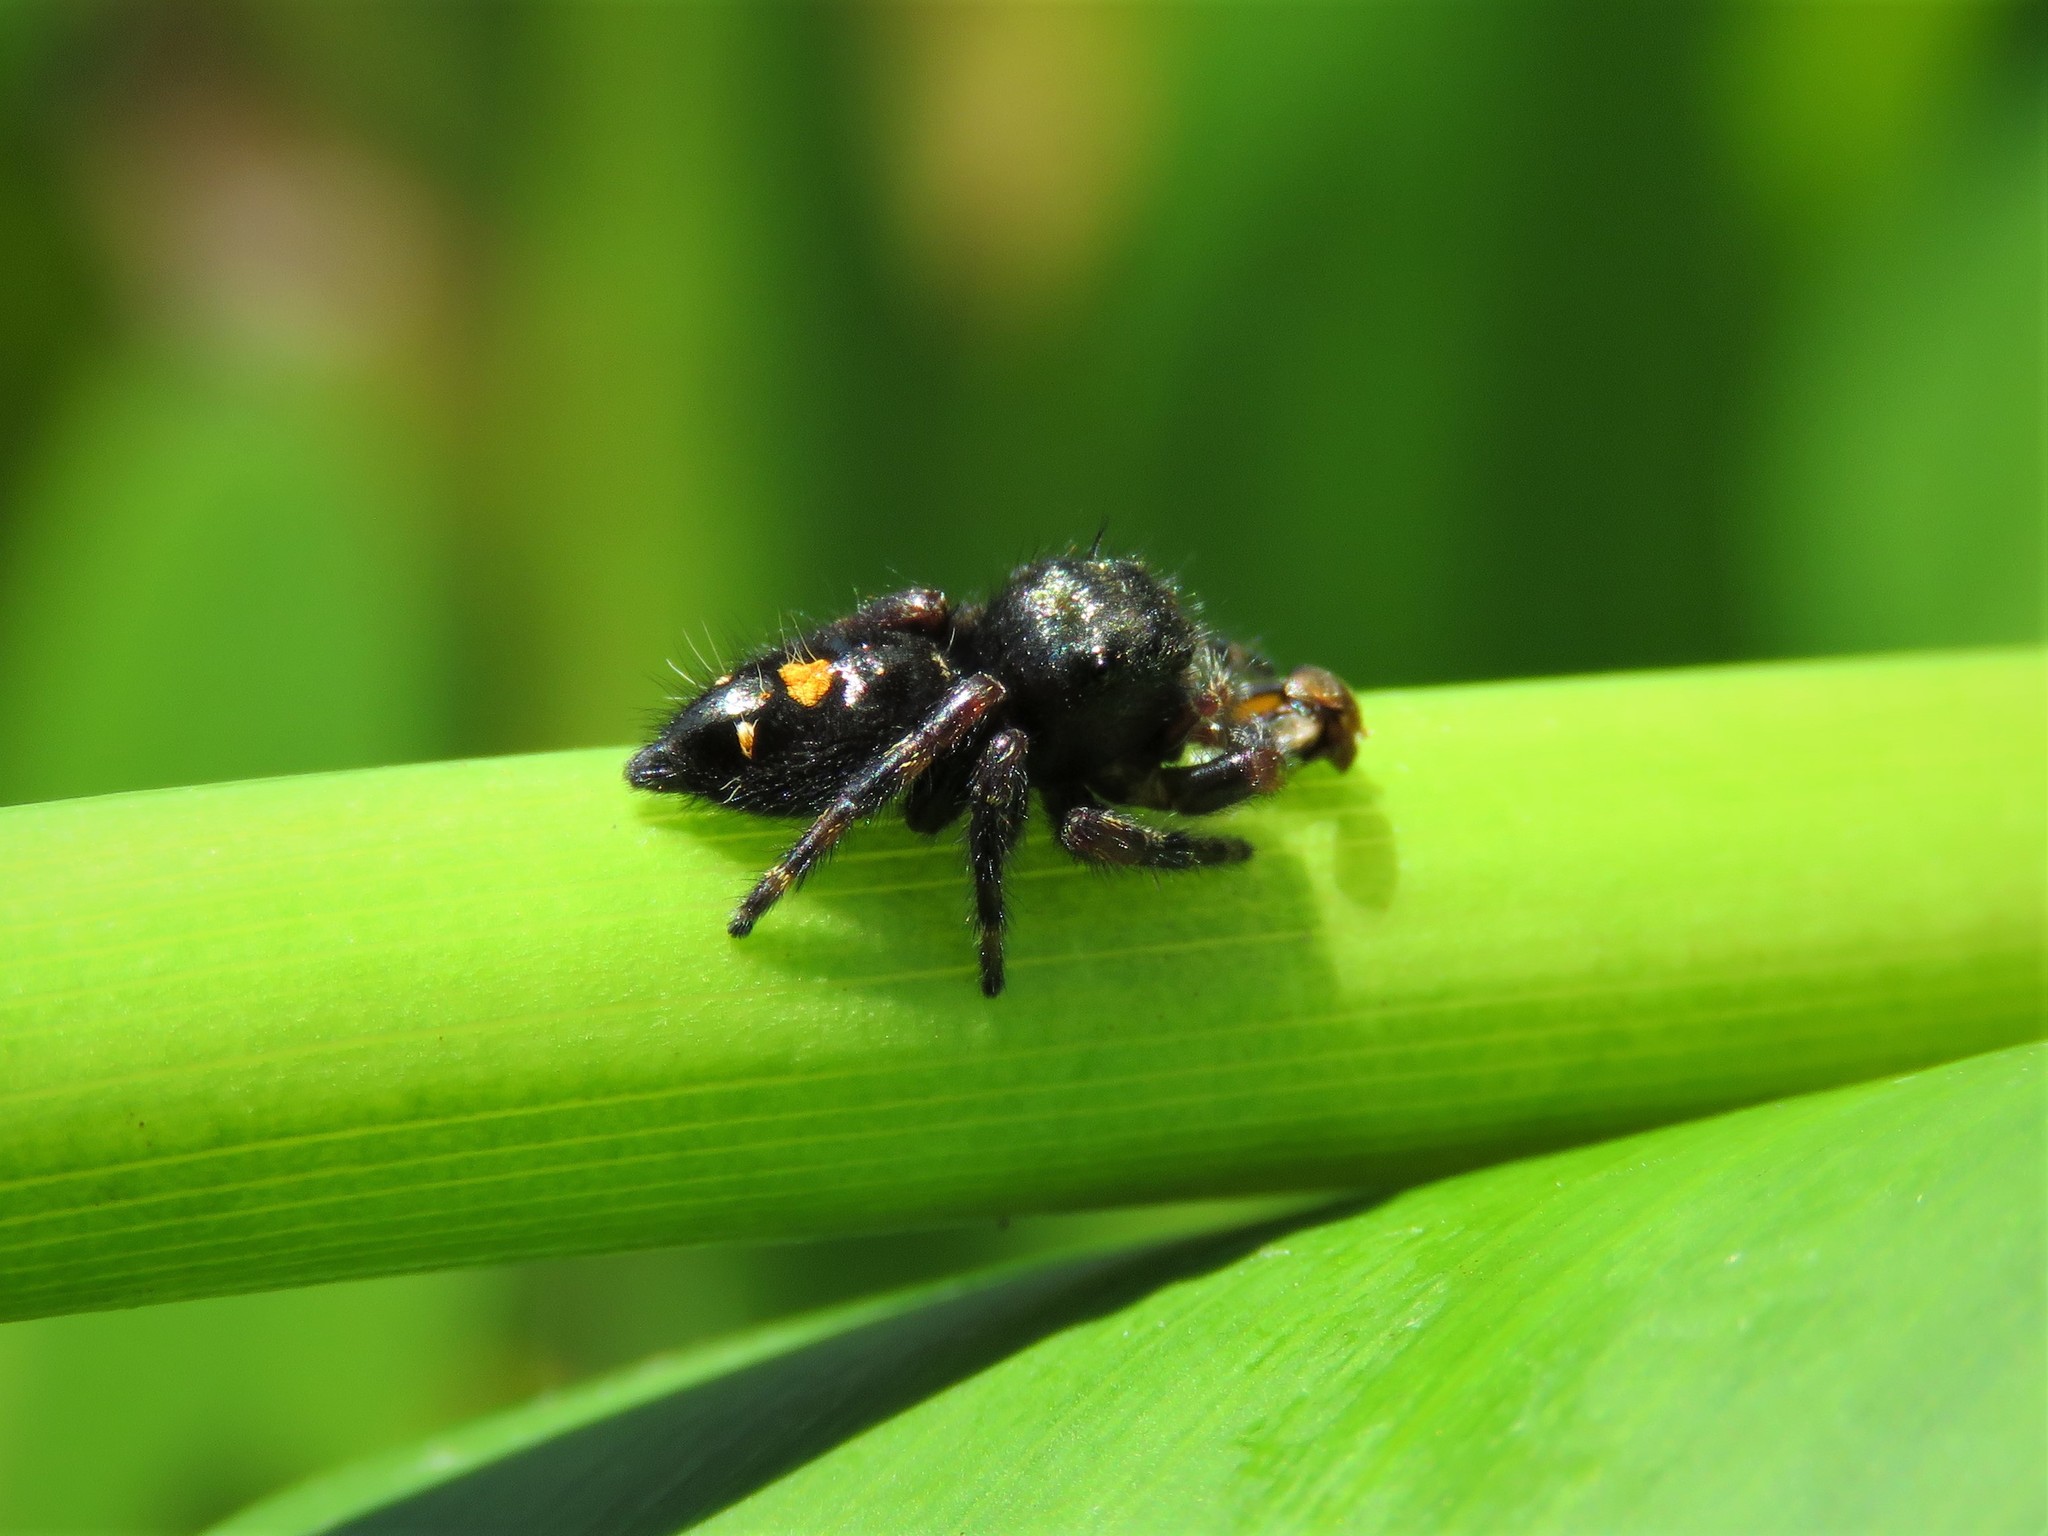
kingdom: Animalia
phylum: Arthropoda
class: Arachnida
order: Araneae
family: Salticidae
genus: Phidippus
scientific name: Phidippus audax
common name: Bold jumper
